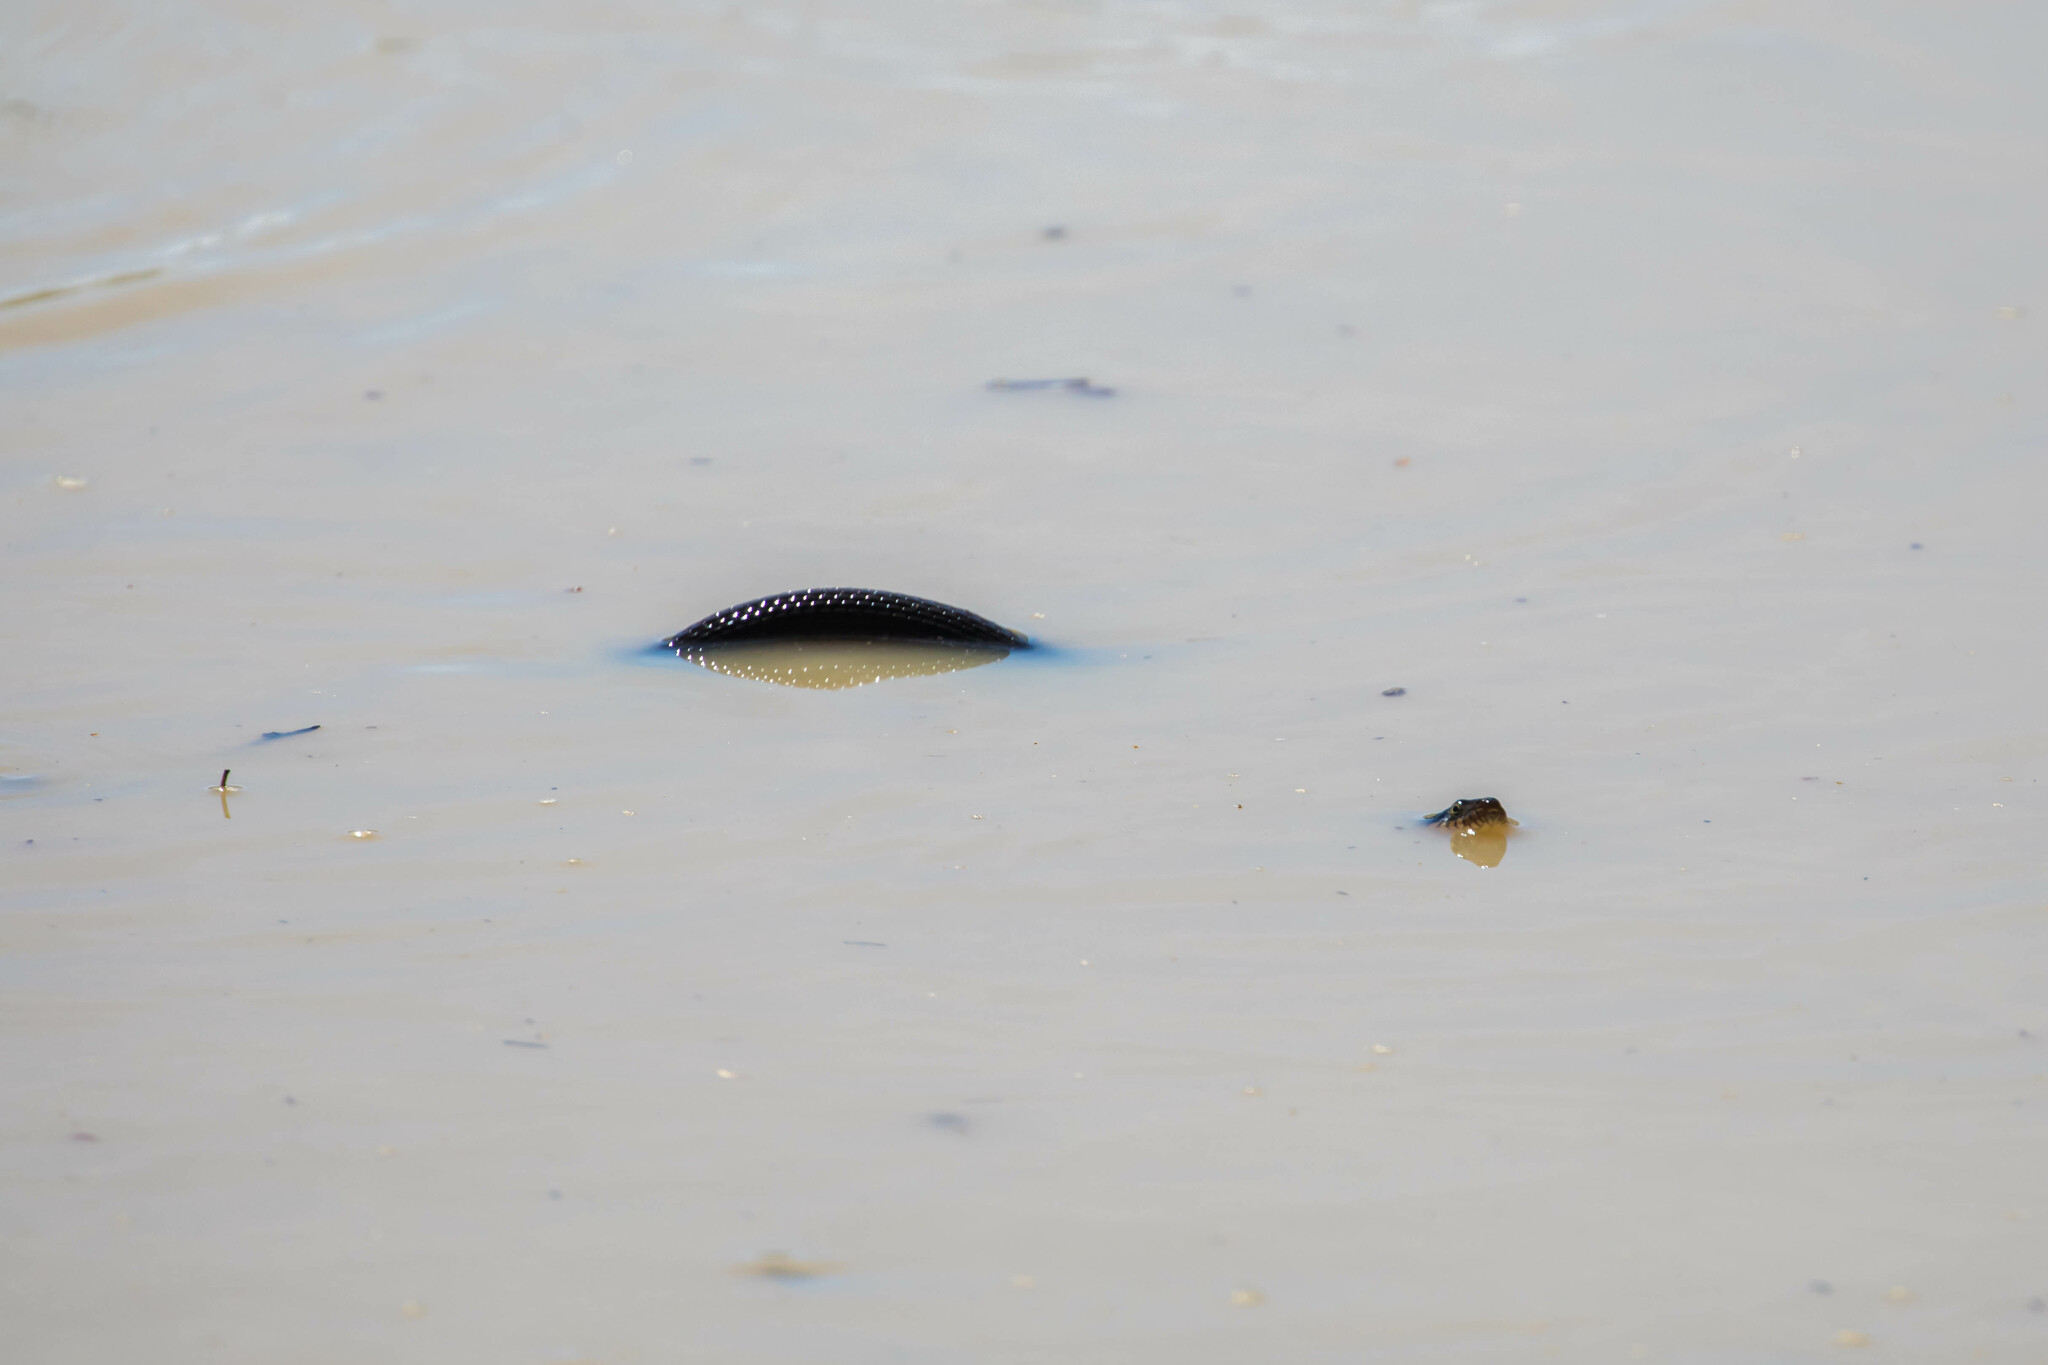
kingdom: Animalia
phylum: Chordata
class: Squamata
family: Colubridae
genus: Nerodia
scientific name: Nerodia erythrogaster
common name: Plainbelly water snake
